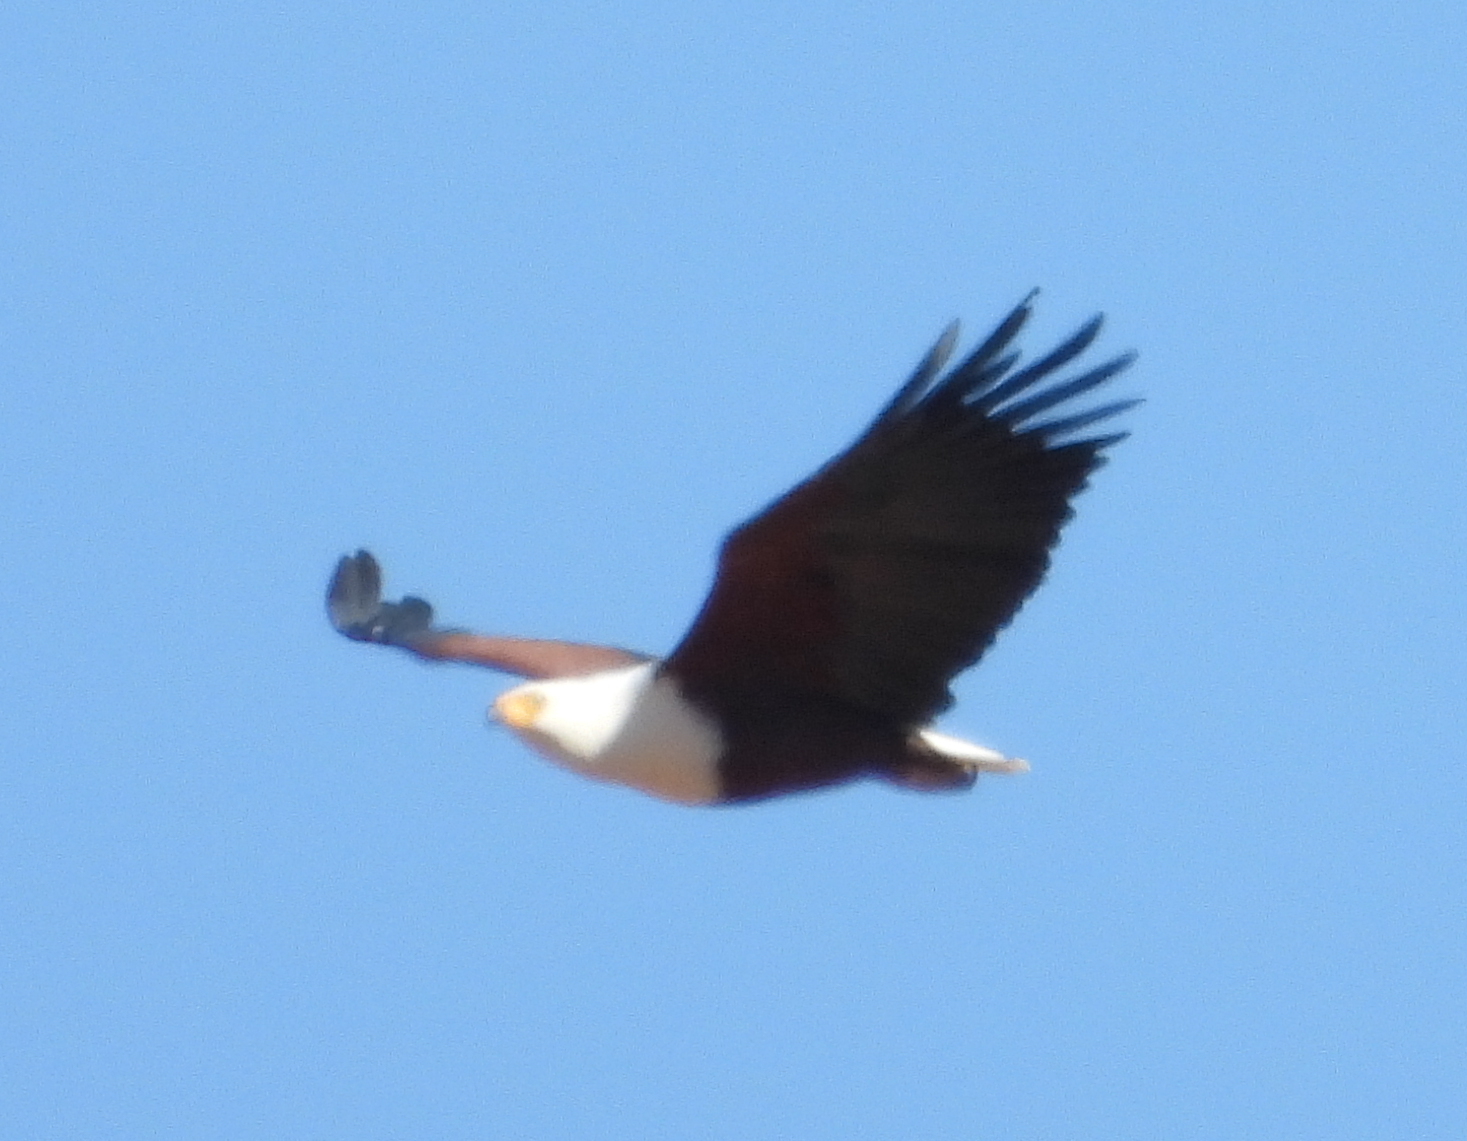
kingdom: Animalia
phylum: Chordata
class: Aves
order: Accipitriformes
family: Accipitridae
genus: Haliaeetus
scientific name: Haliaeetus vocifer
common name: African fish eagle
